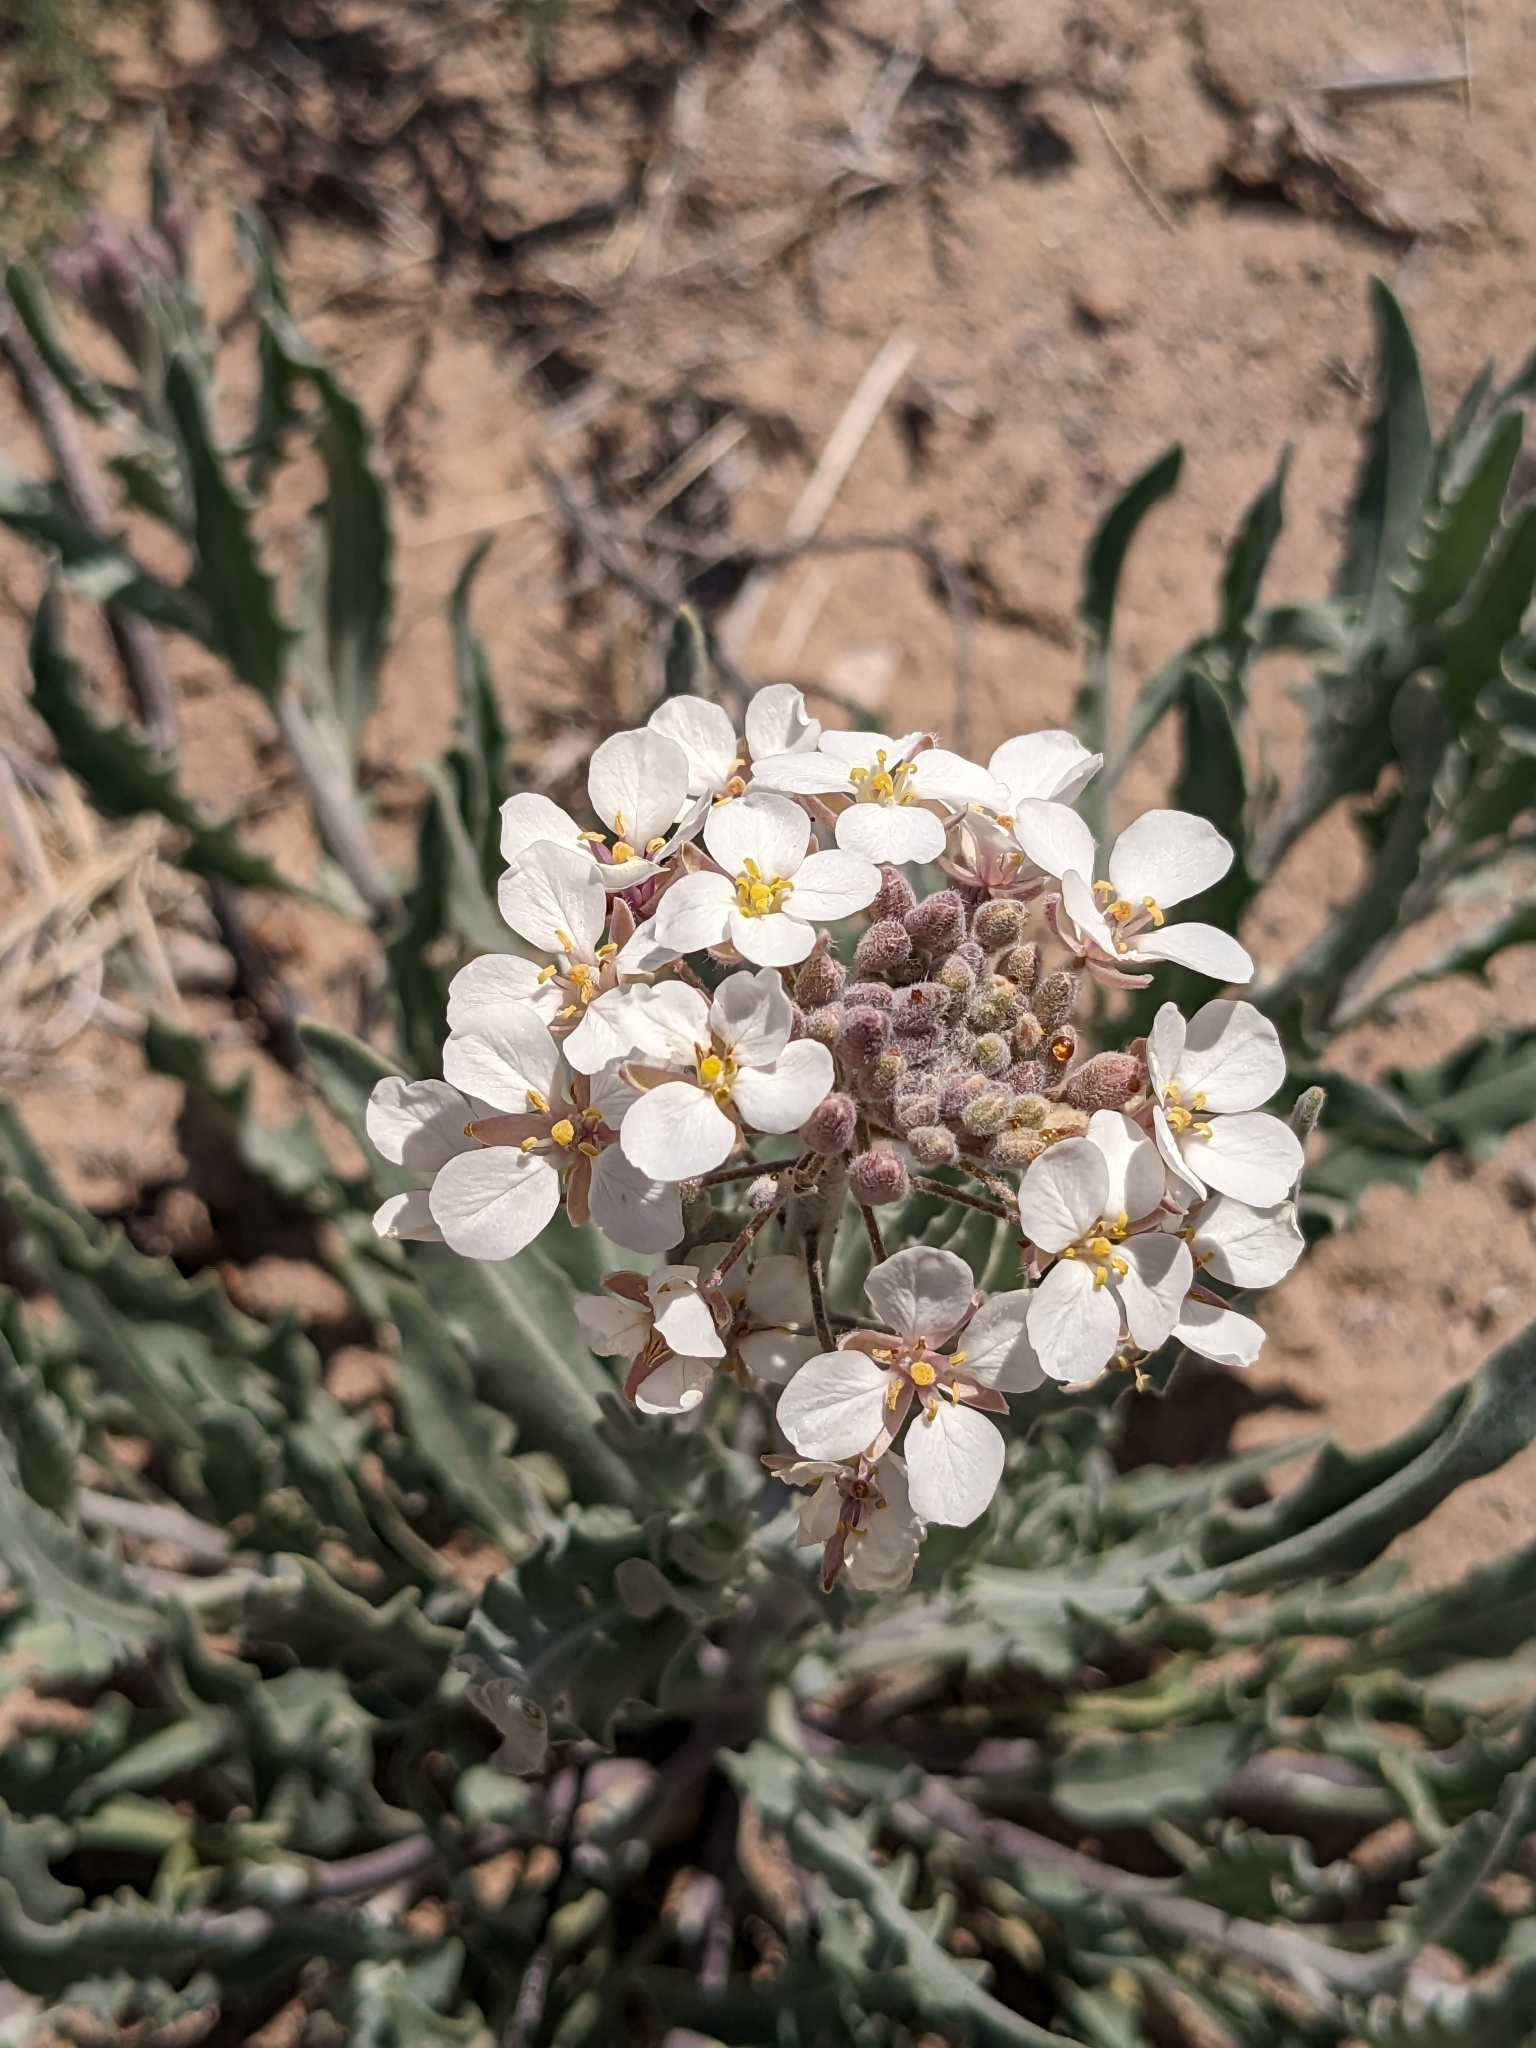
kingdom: Plantae
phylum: Tracheophyta
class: Magnoliopsida
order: Brassicales
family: Brassicaceae
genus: Dimorphocarpa
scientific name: Dimorphocarpa wislizenii
